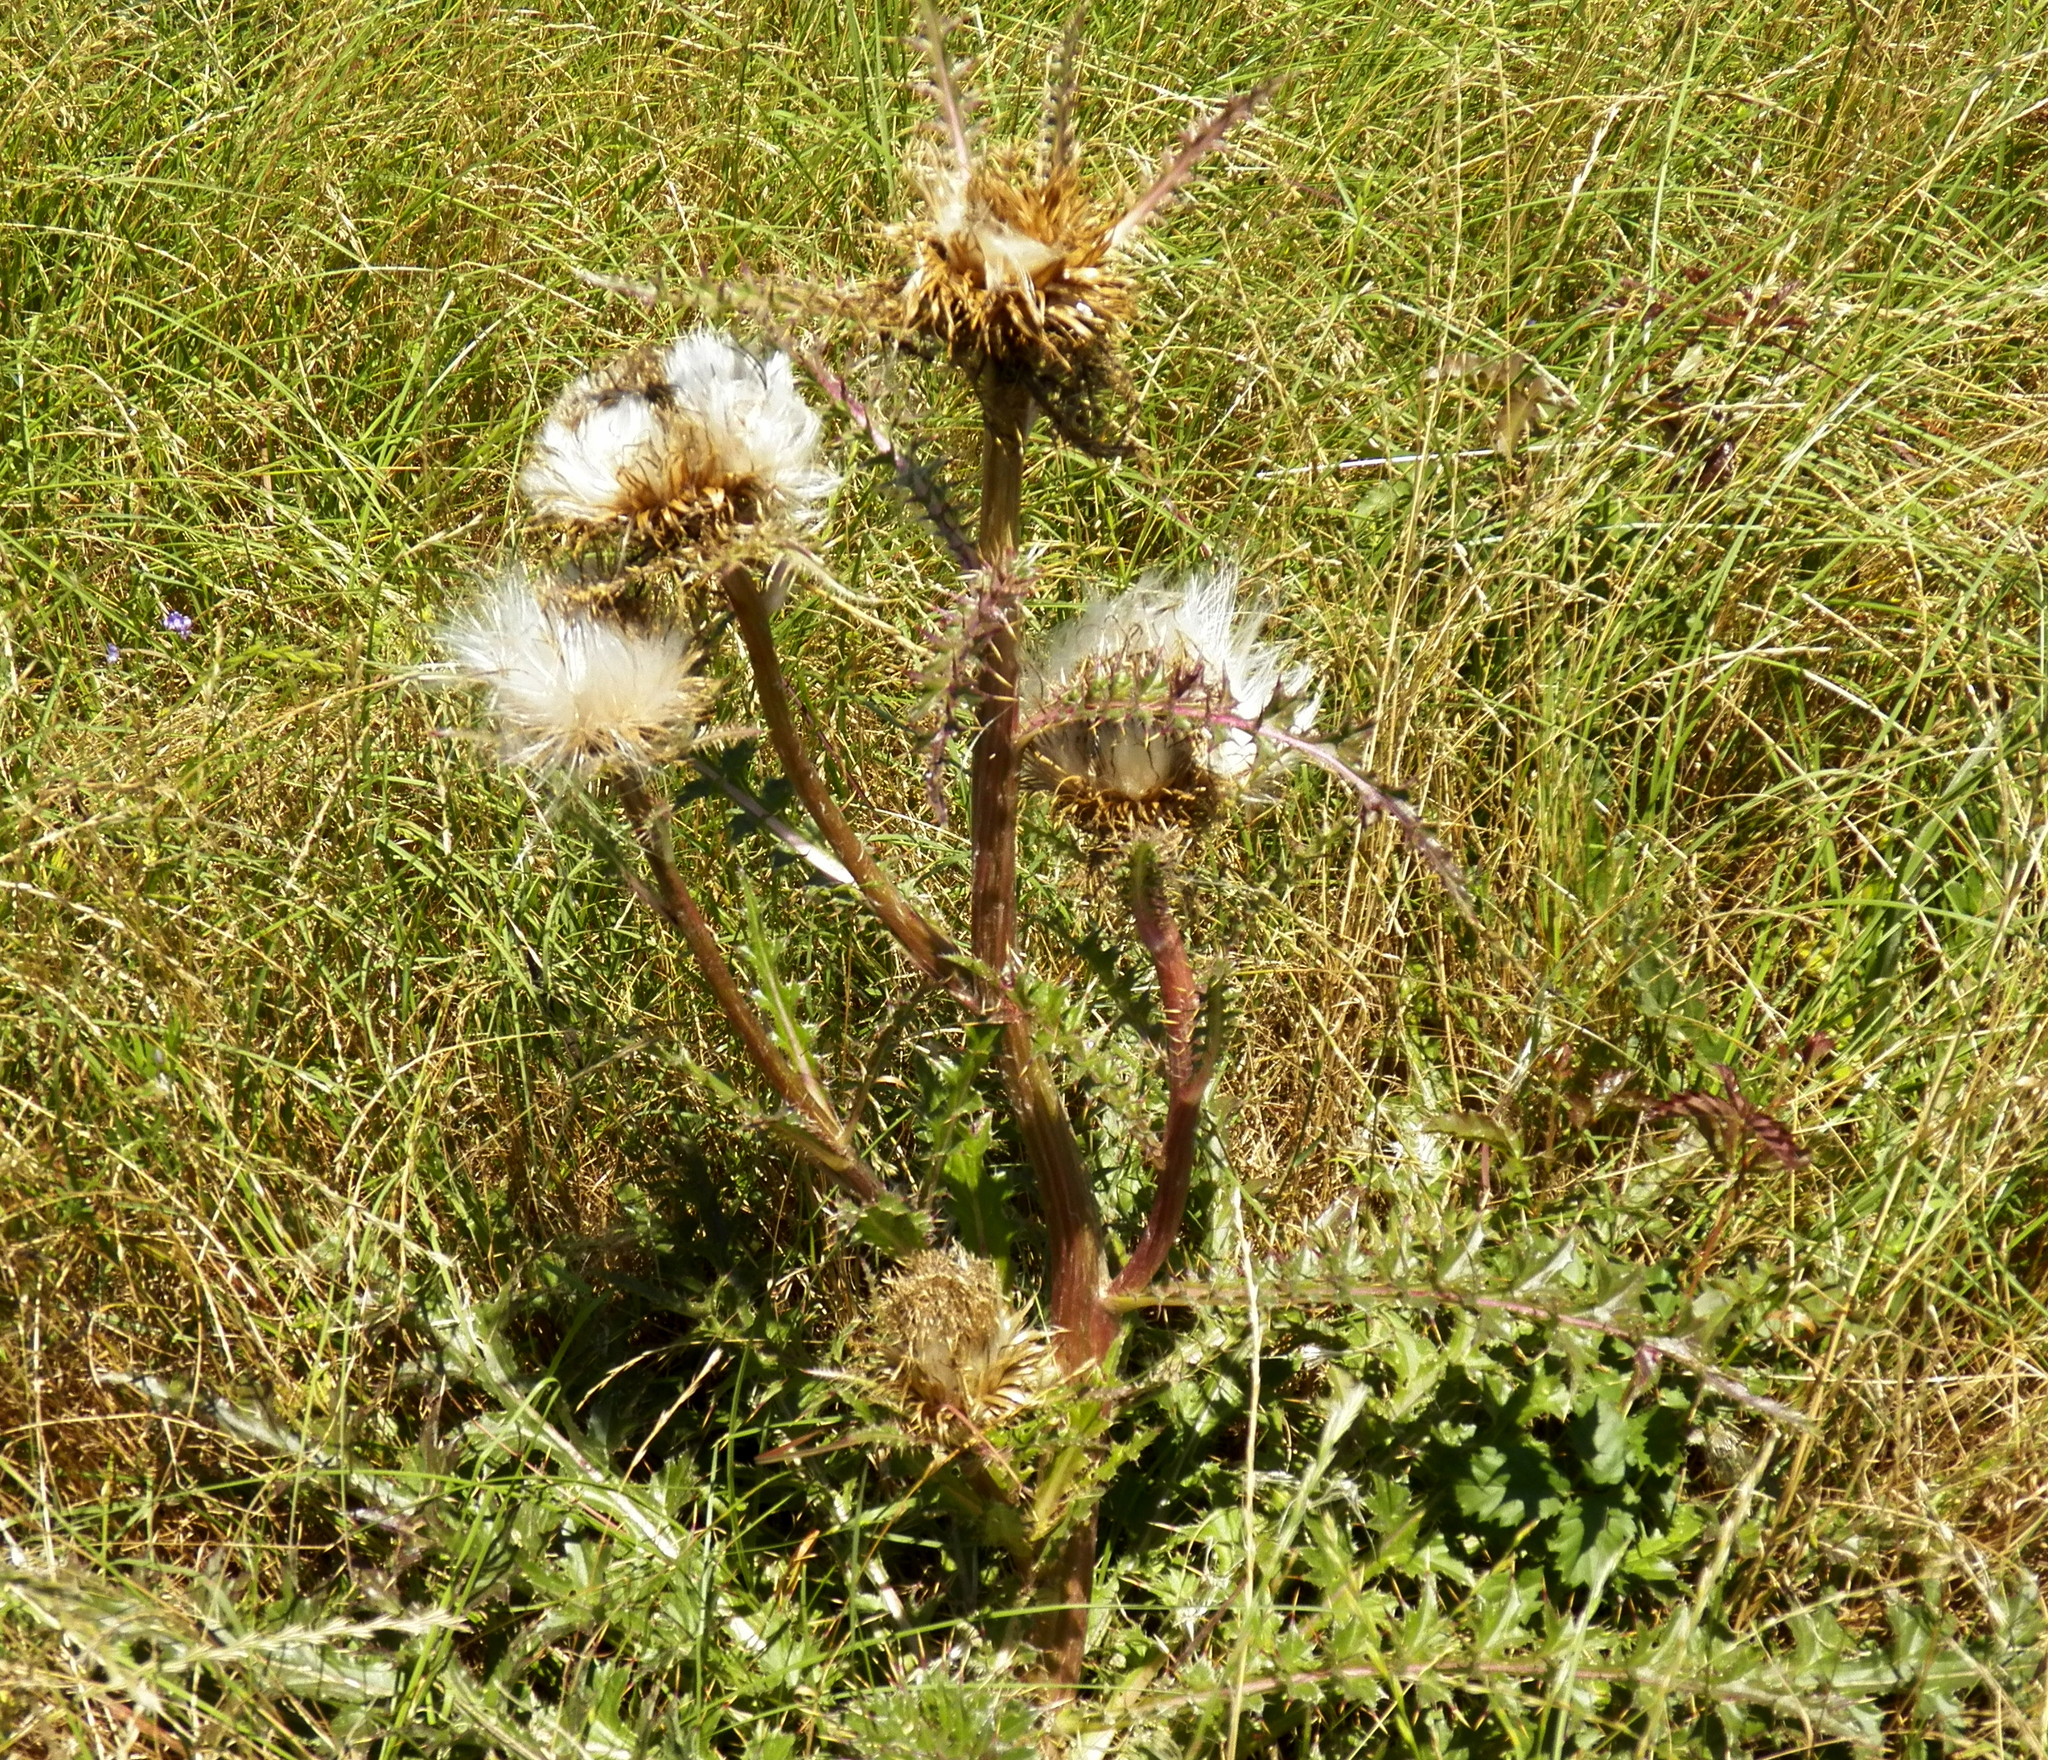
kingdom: Plantae
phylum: Tracheophyta
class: Magnoliopsida
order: Asterales
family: Asteraceae
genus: Cirsium
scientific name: Cirsium horridulum
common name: Bristly thistle
